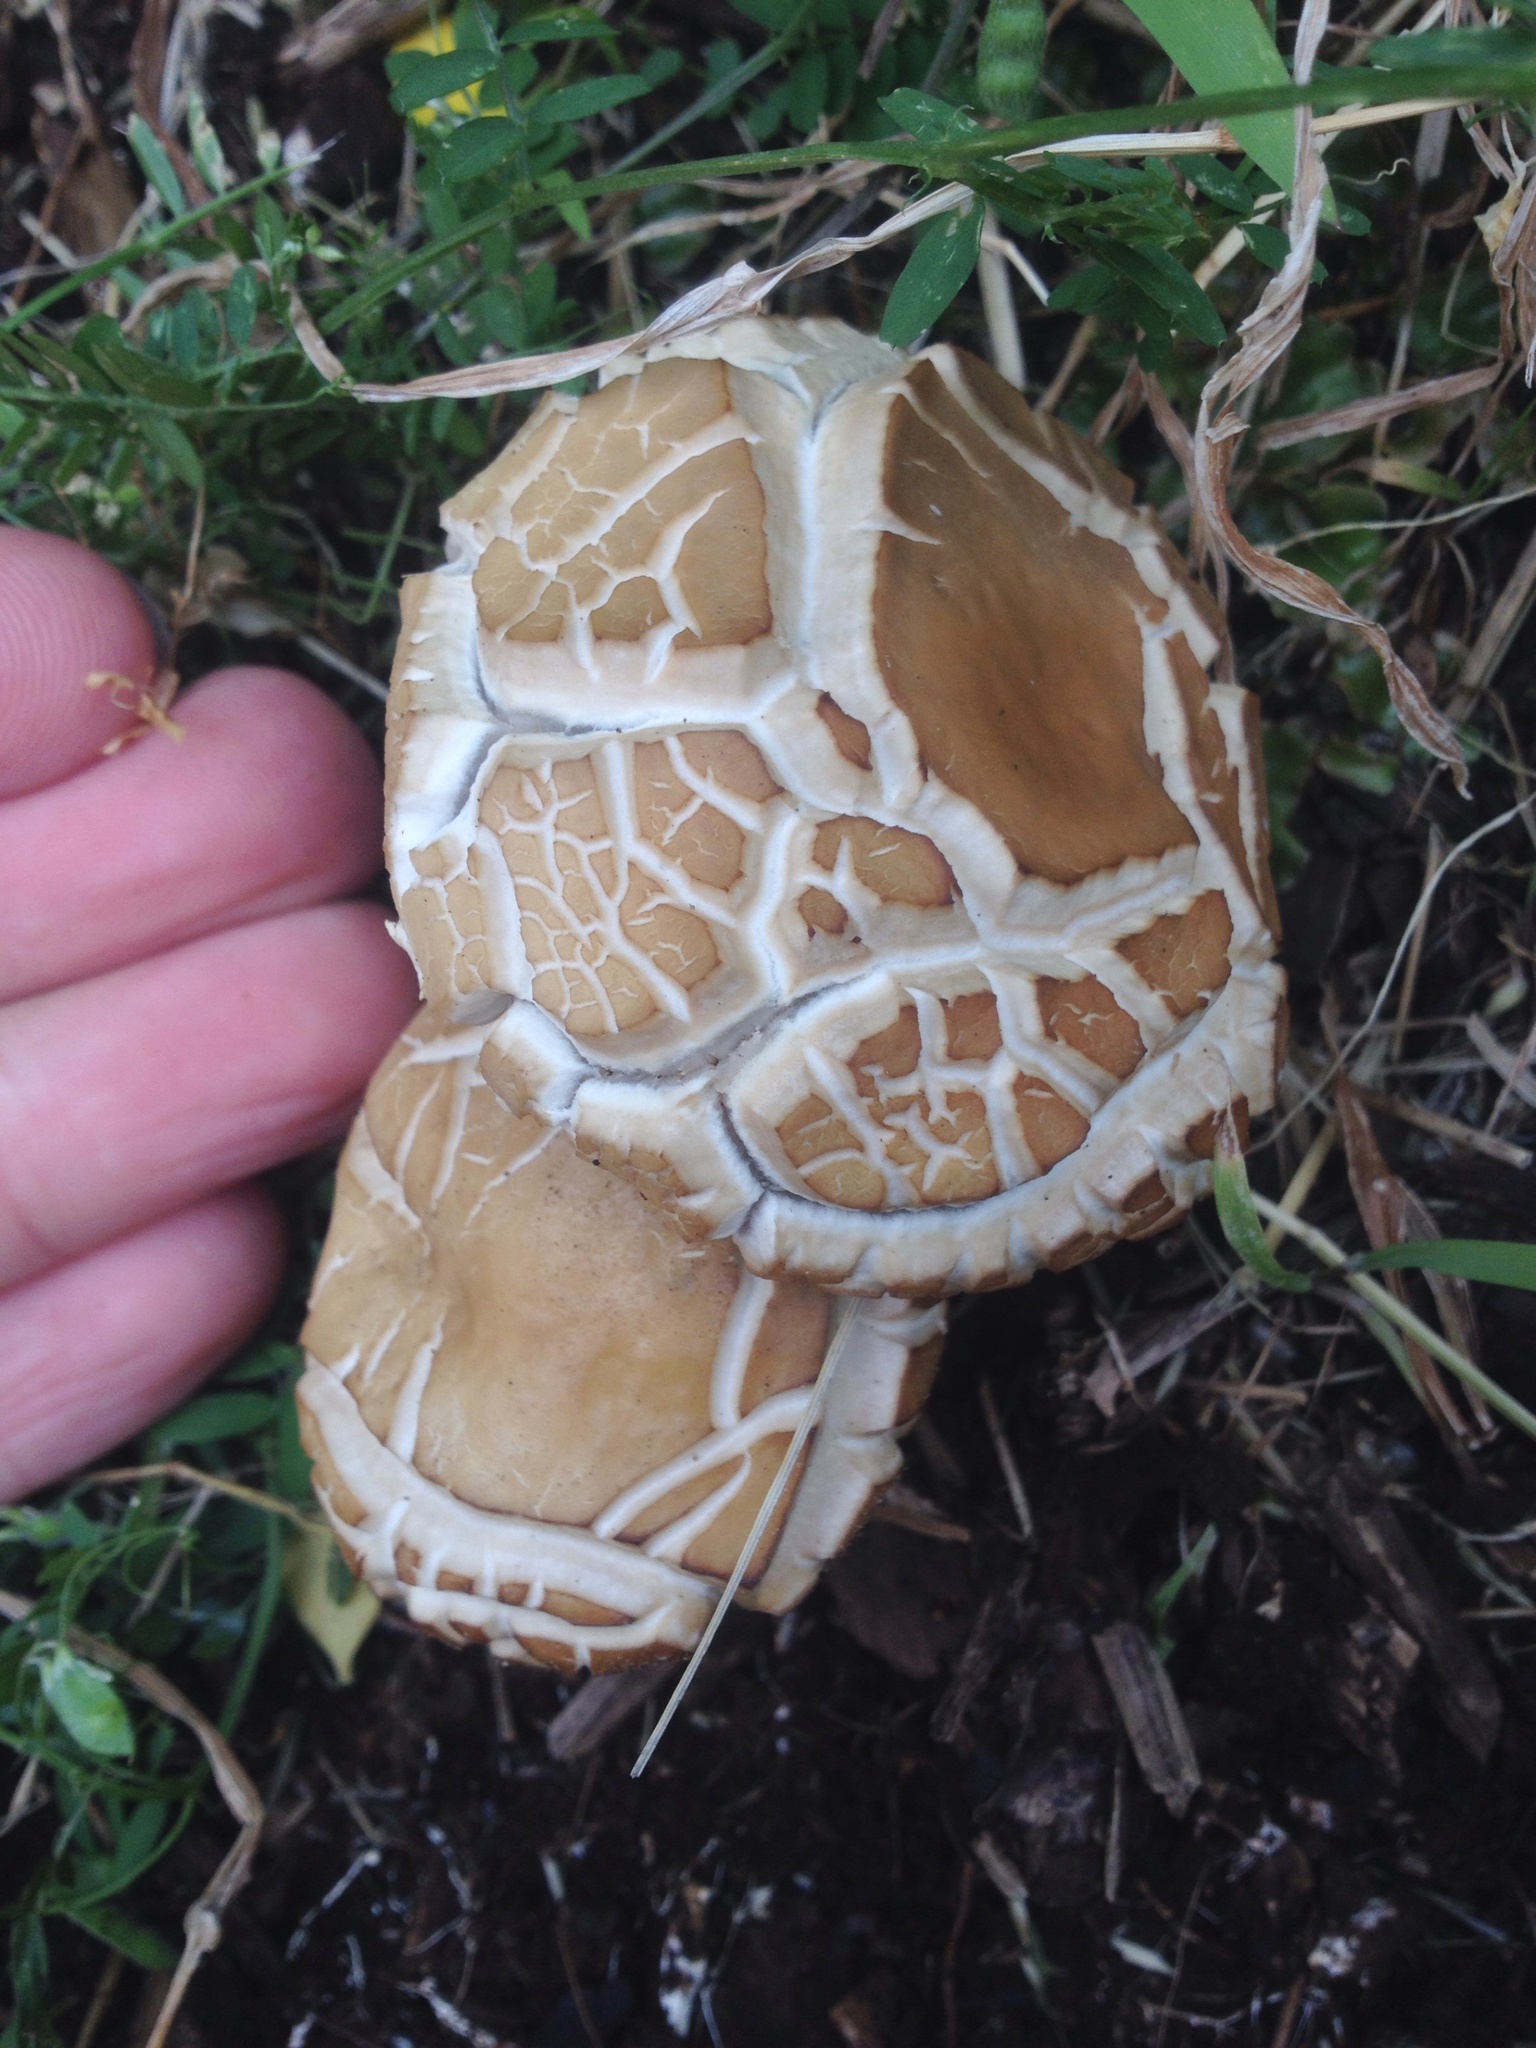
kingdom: Fungi
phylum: Basidiomycota
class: Agaricomycetes
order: Agaricales
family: Strophariaceae
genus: Agrocybe
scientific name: Agrocybe praecox
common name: Spring fieldcap
